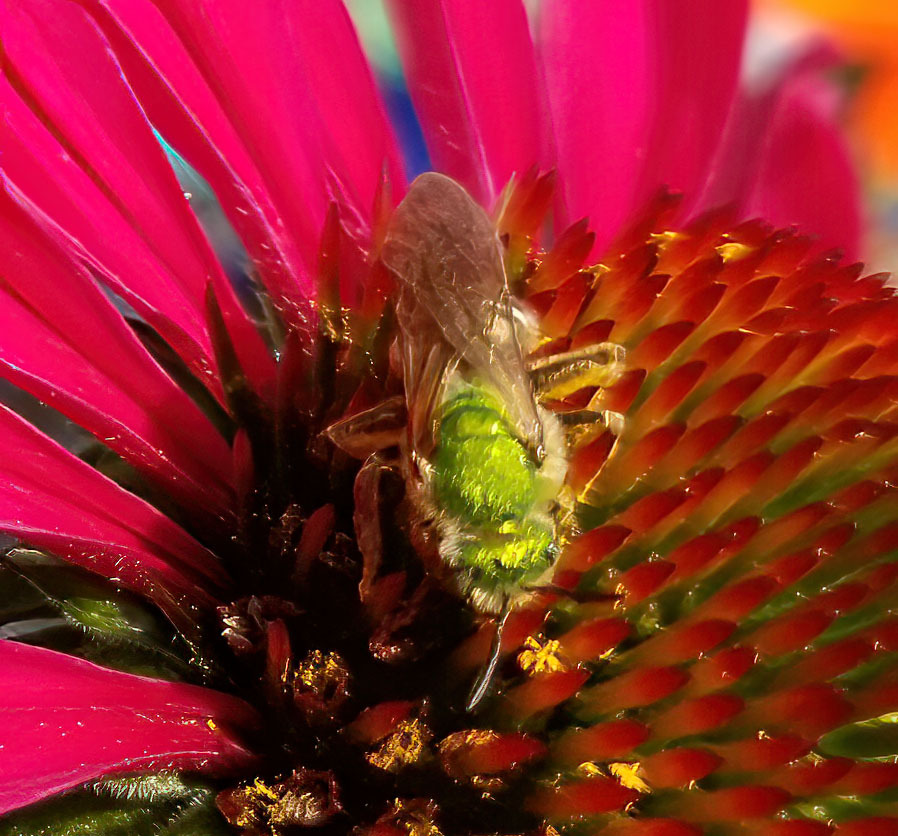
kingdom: Animalia
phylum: Arthropoda
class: Insecta
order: Hymenoptera
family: Halictidae
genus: Agapostemon
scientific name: Agapostemon virescens
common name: Bicolored striped sweat bee
